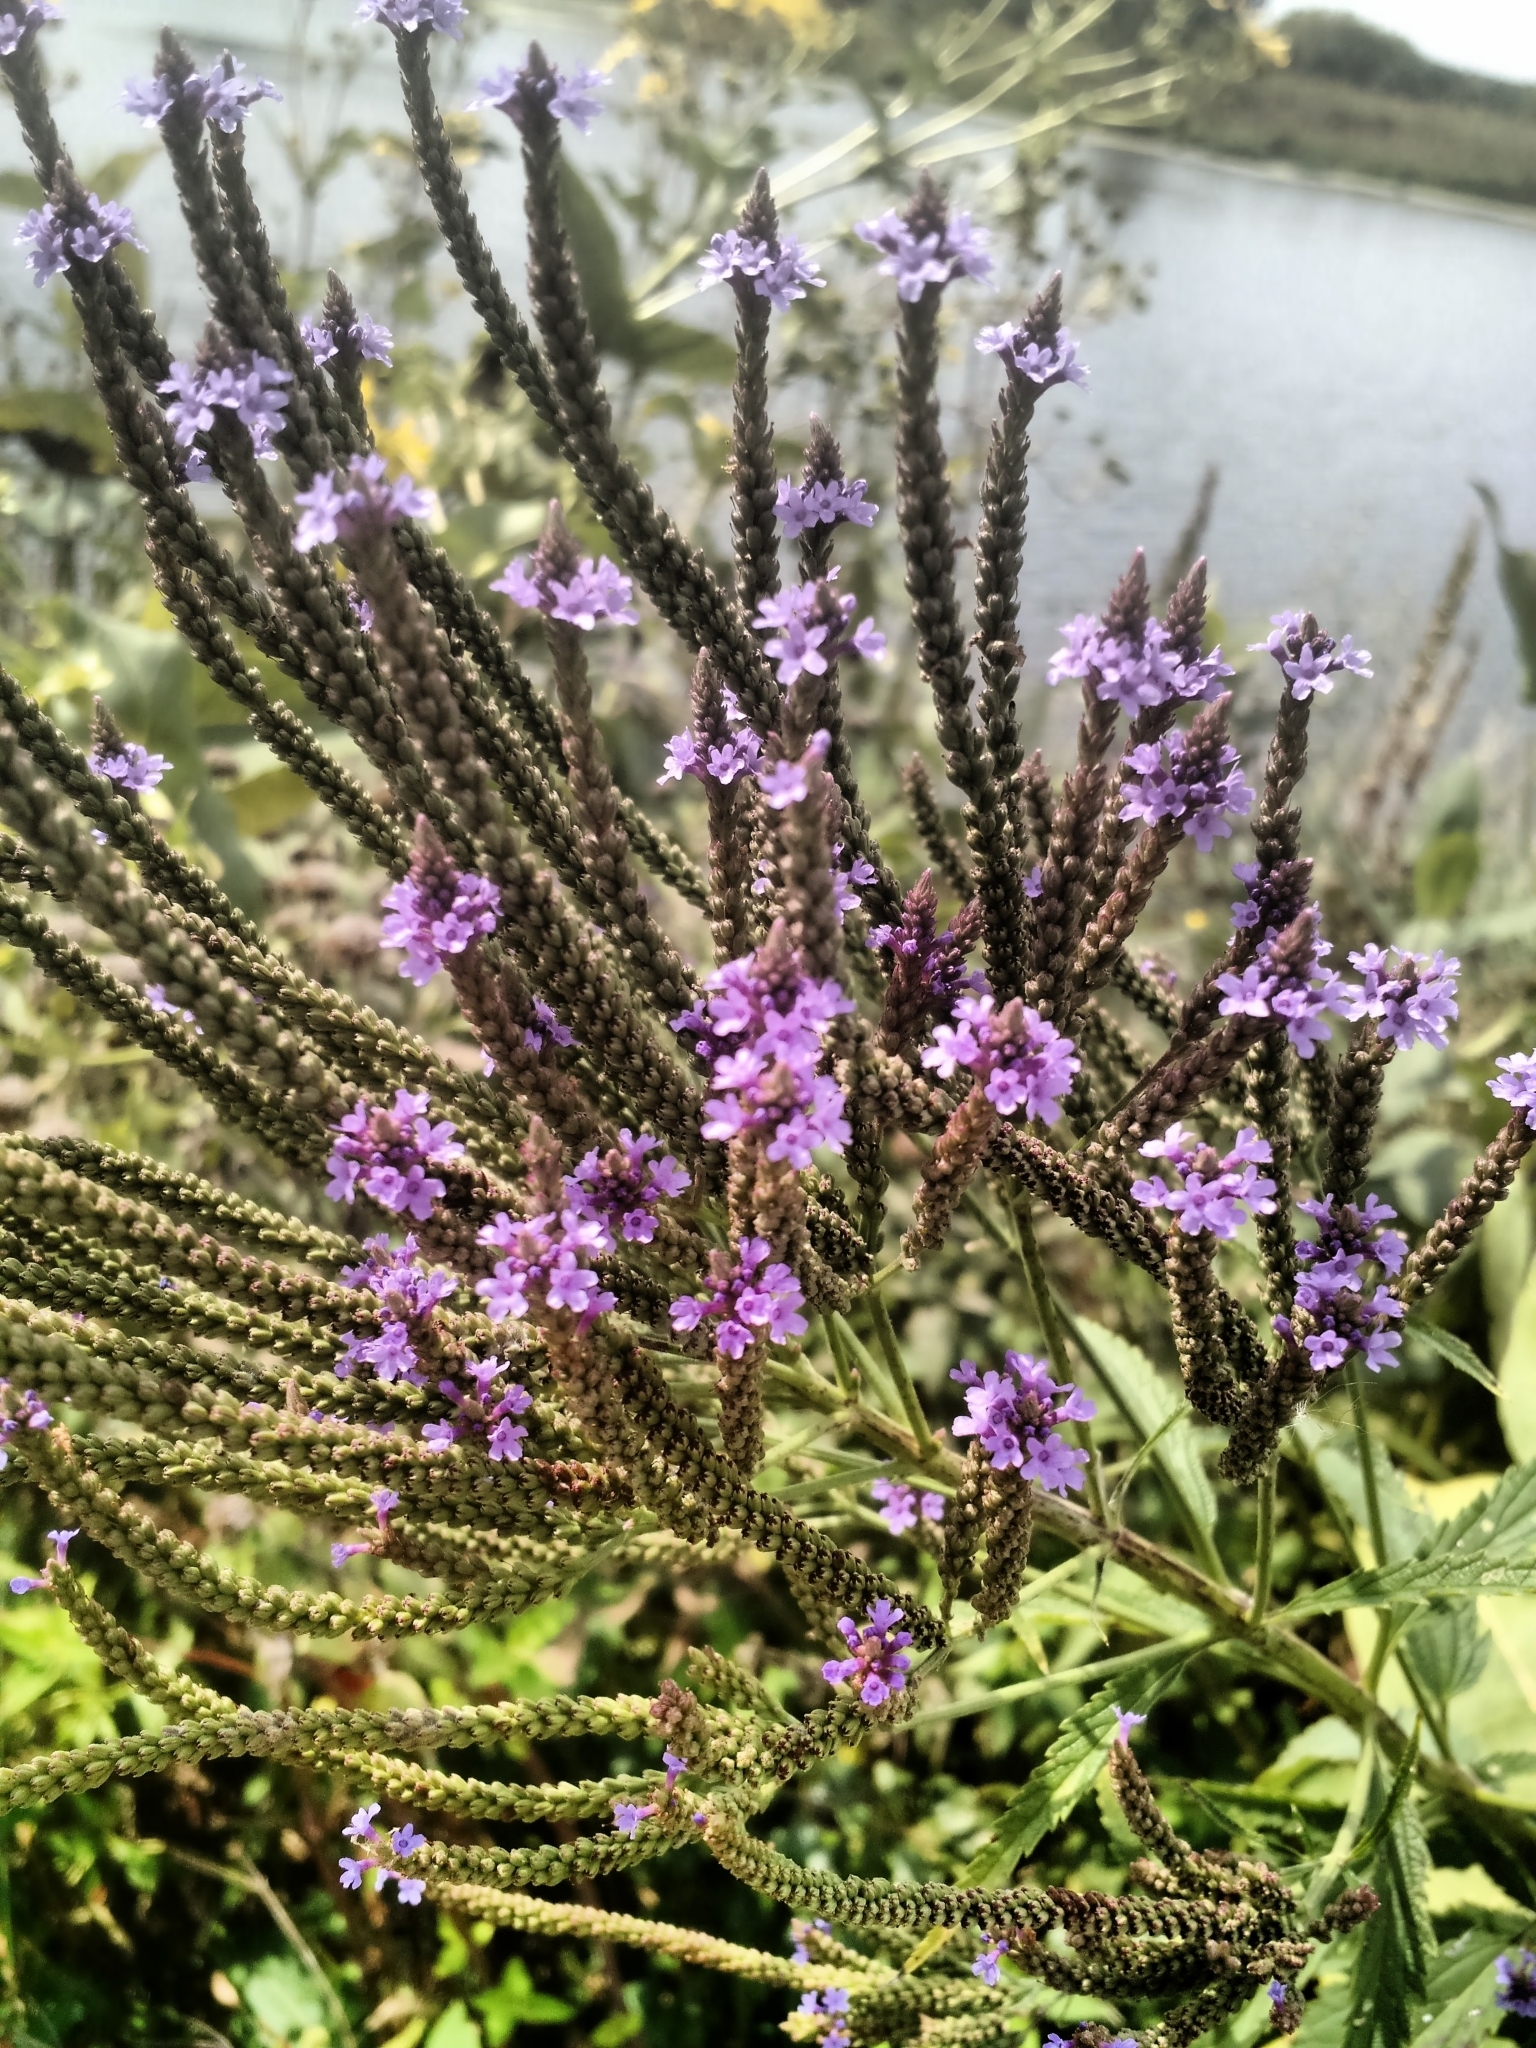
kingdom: Plantae
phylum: Tracheophyta
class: Magnoliopsida
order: Lamiales
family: Verbenaceae
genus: Verbena
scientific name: Verbena hastata
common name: American blue vervain
